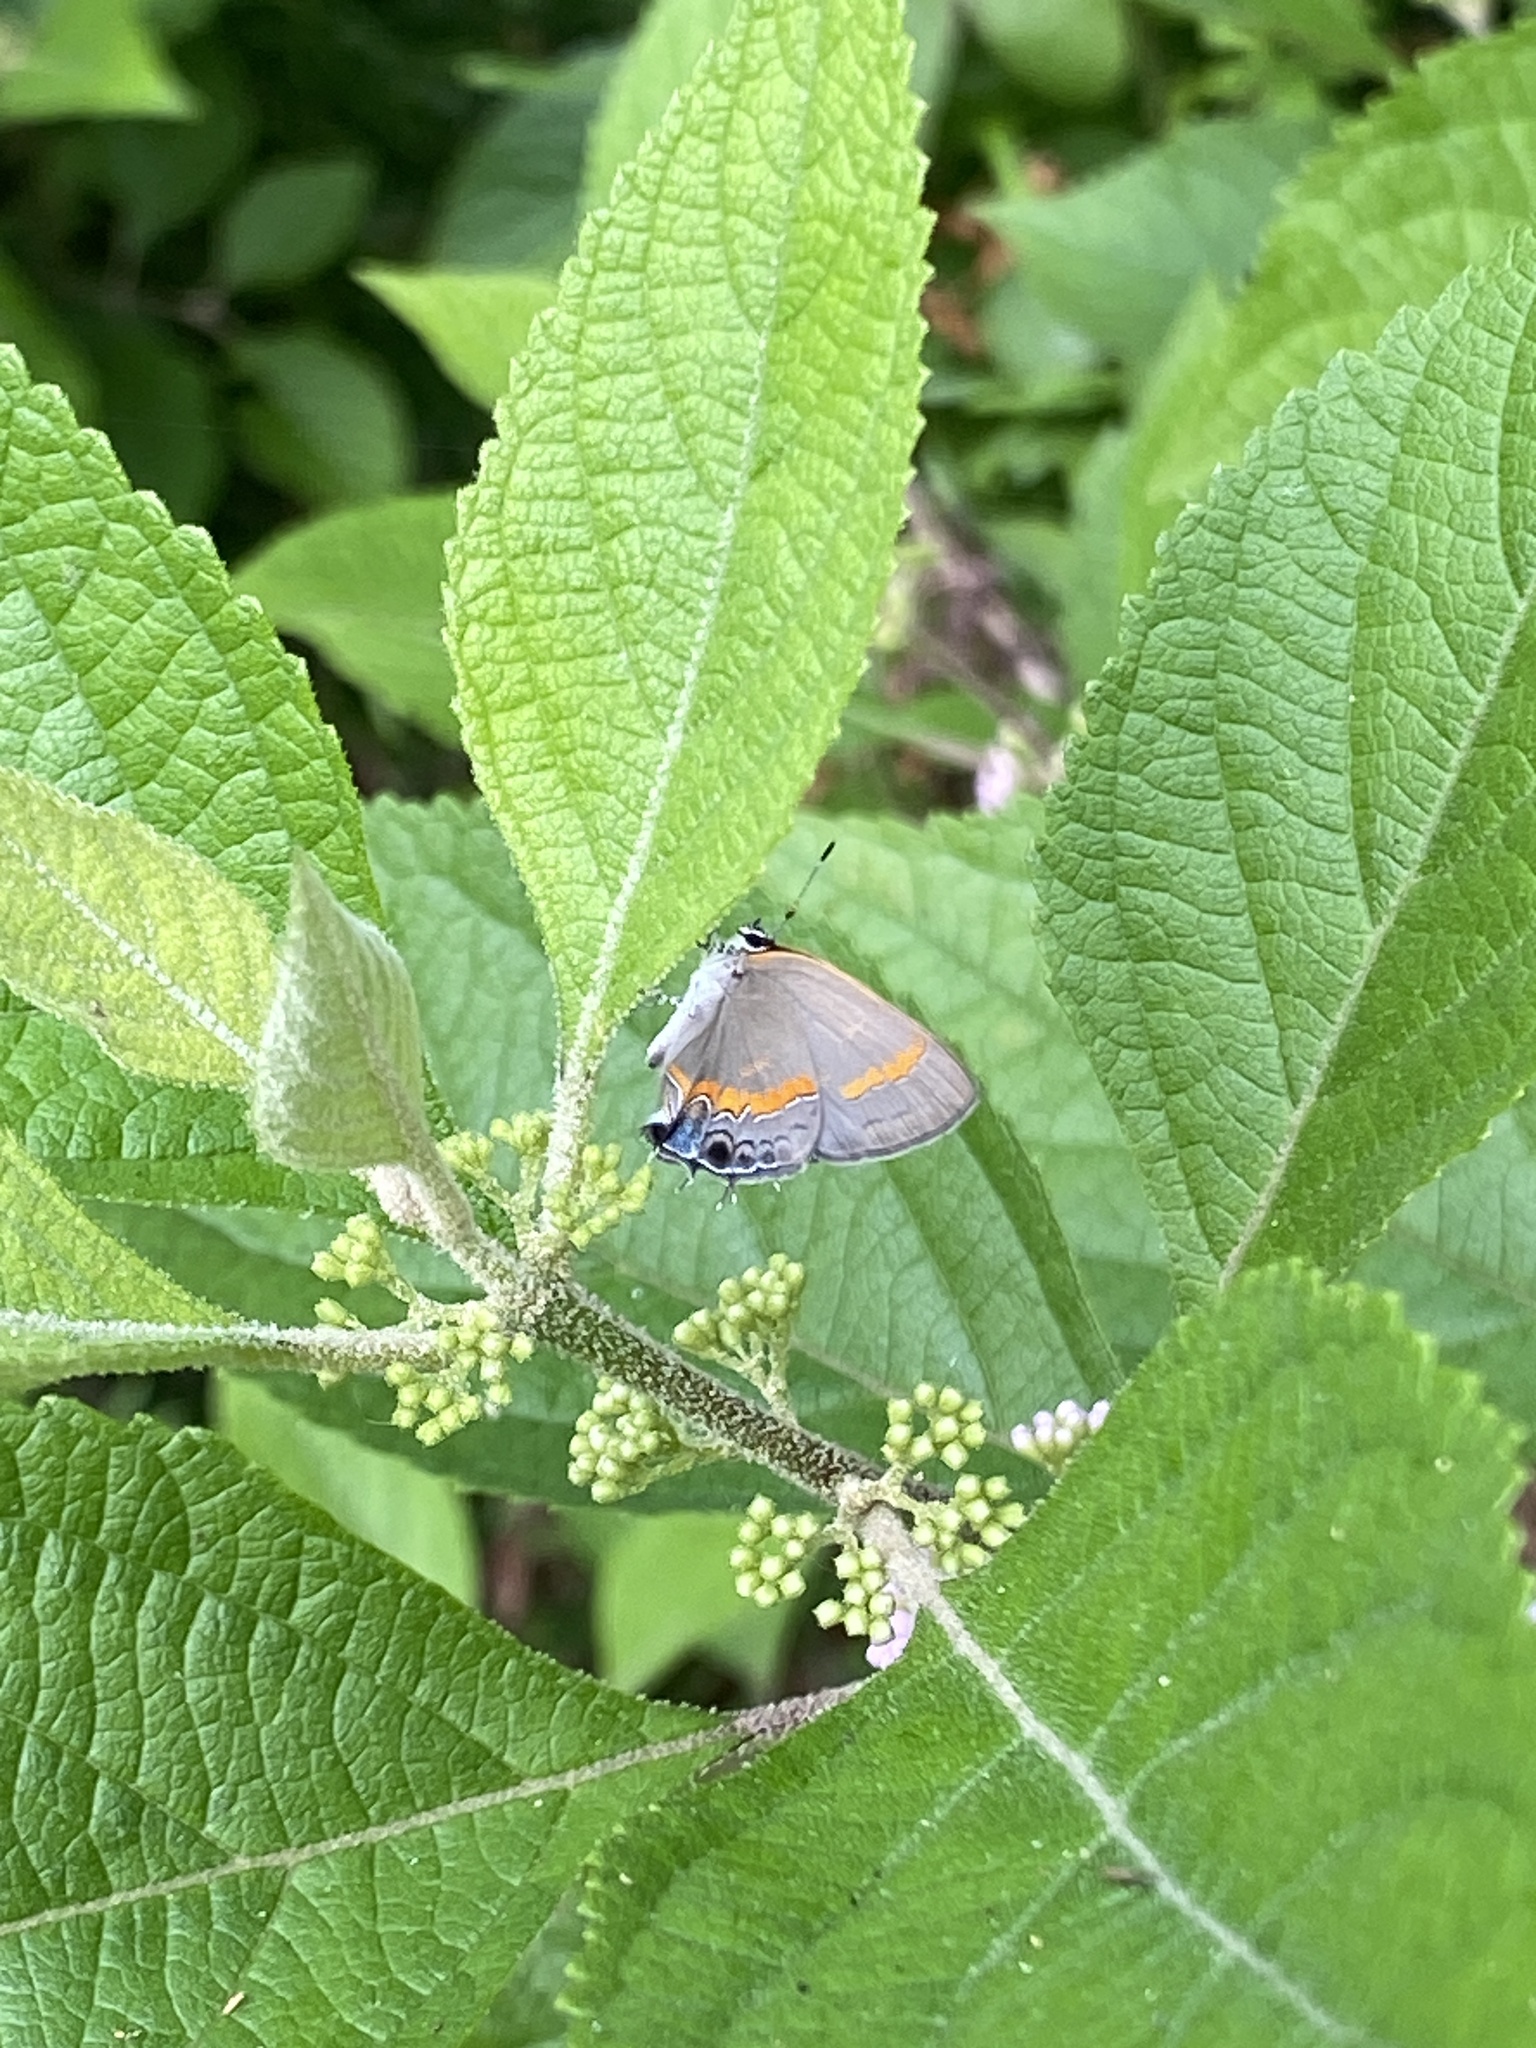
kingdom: Animalia
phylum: Arthropoda
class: Insecta
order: Lepidoptera
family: Lycaenidae
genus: Calycopis
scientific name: Calycopis cecrops
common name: Red-banded hairstreak
